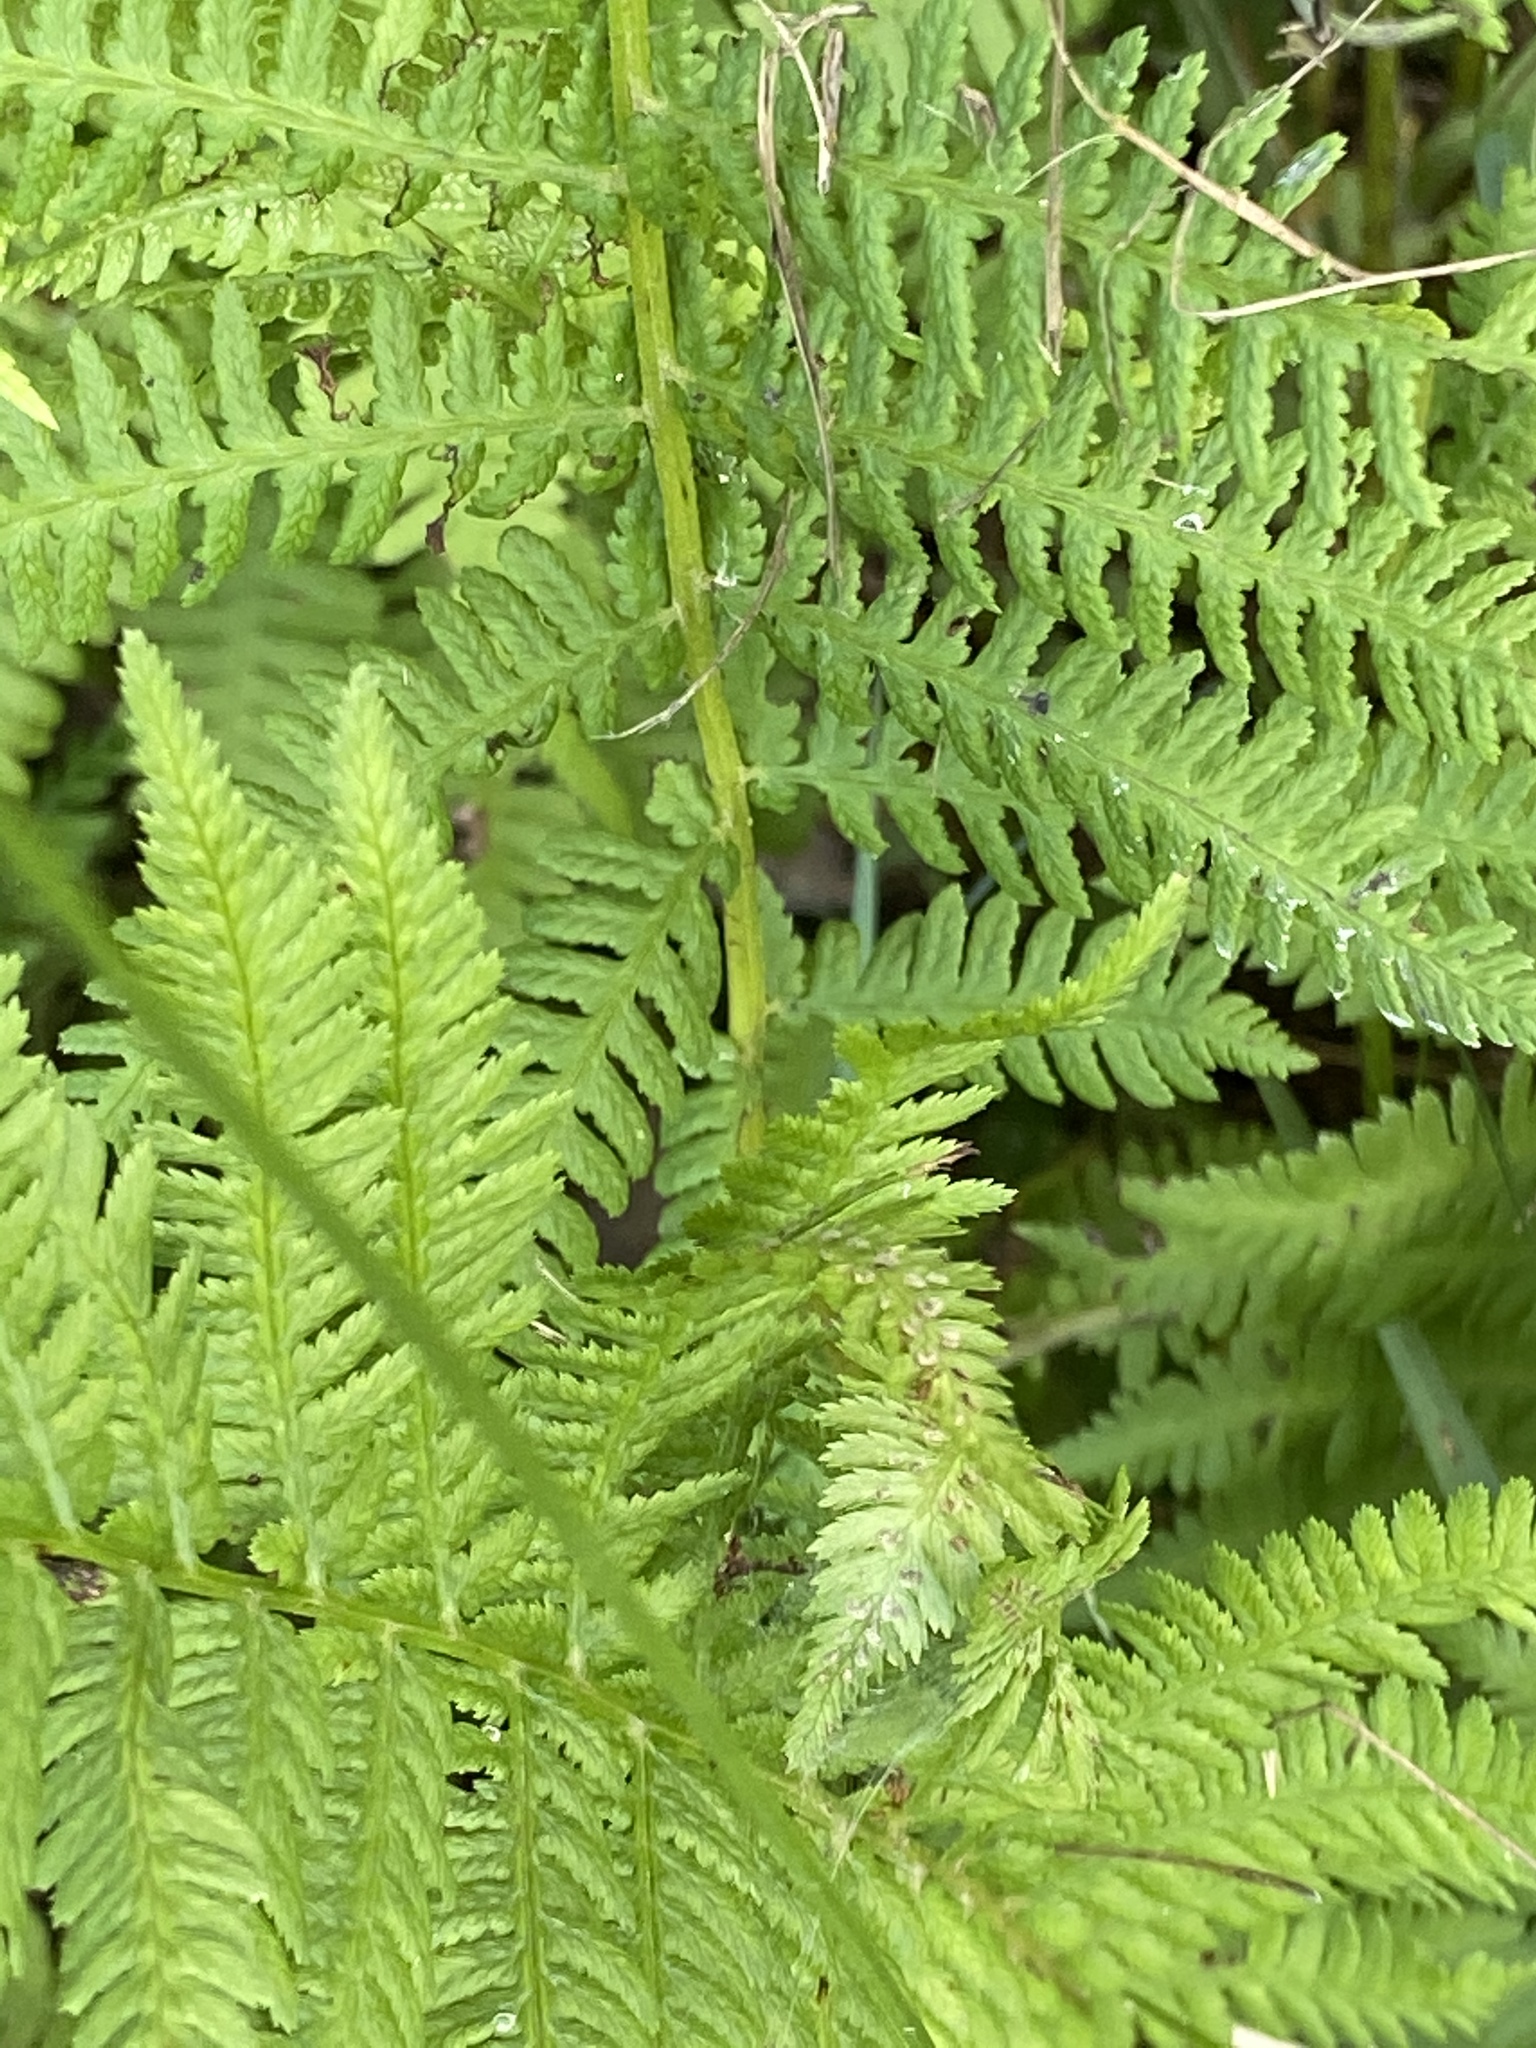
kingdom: Plantae
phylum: Tracheophyta
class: Polypodiopsida
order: Polypodiales
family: Athyriaceae
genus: Athyrium
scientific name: Athyrium angustum
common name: Northern lady fern
